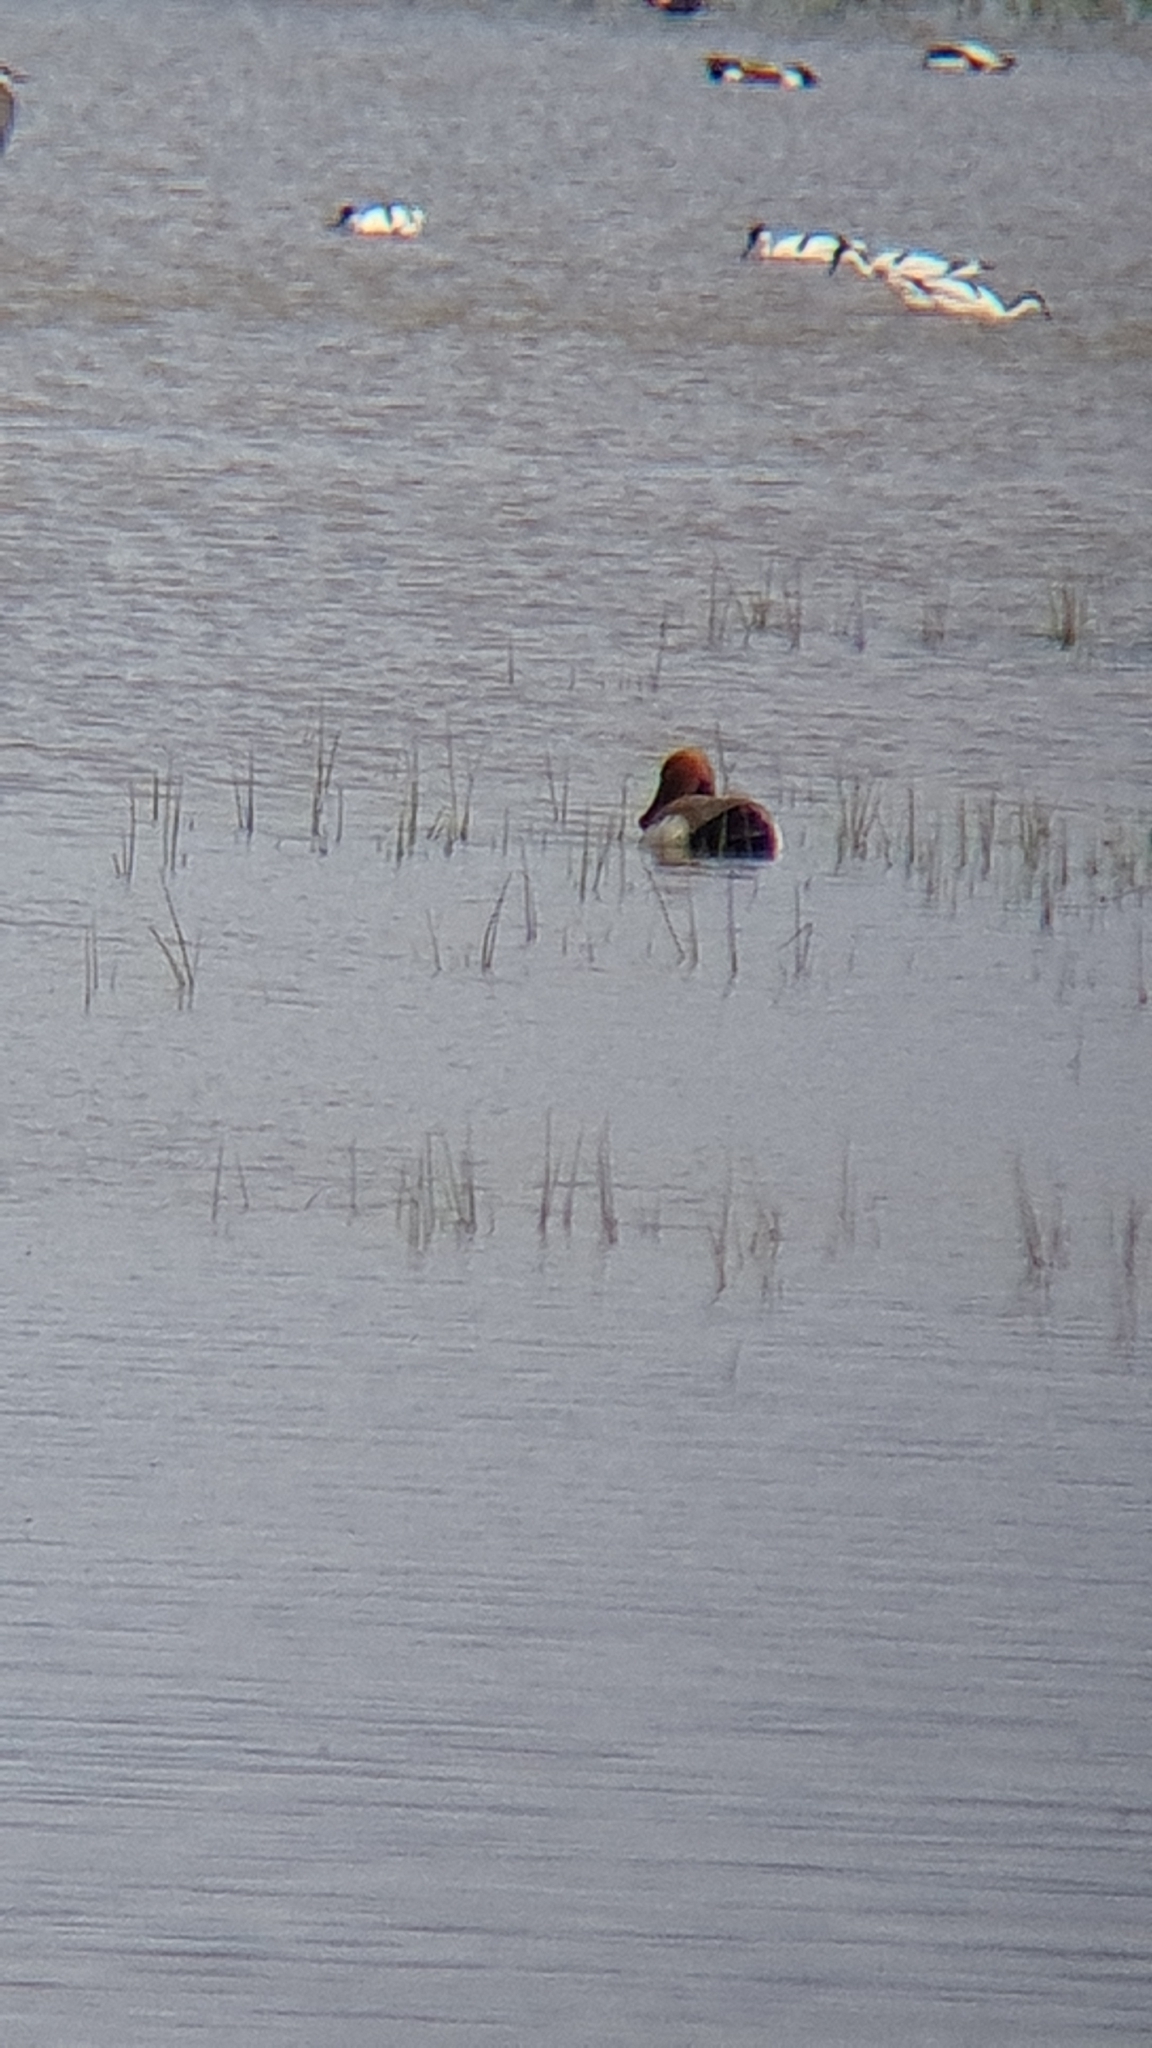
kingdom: Animalia
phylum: Chordata
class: Aves
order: Anseriformes
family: Anatidae
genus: Netta
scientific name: Netta rufina
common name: Red-crested pochard
